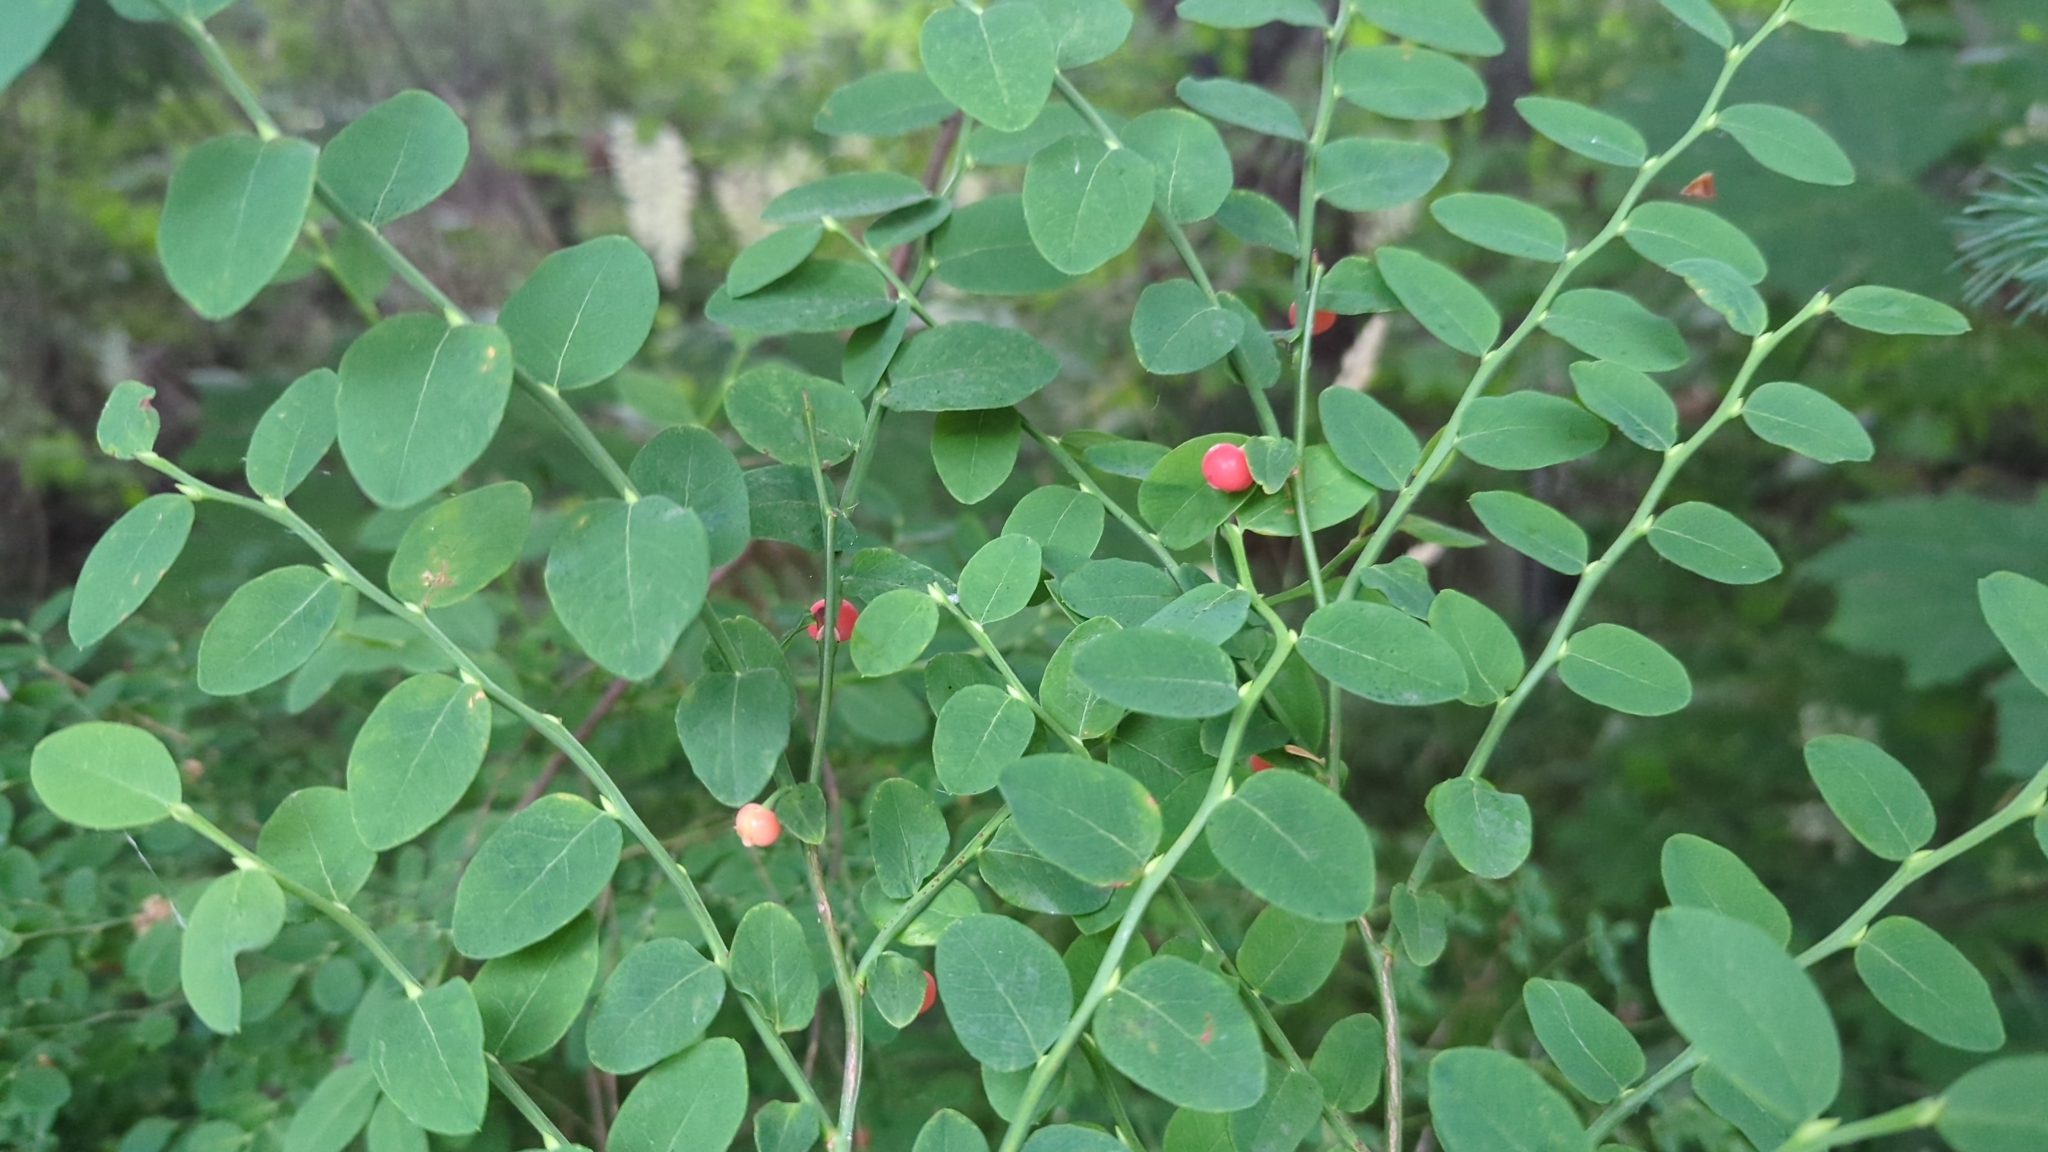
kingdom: Plantae
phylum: Tracheophyta
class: Magnoliopsida
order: Ericales
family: Ericaceae
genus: Vaccinium
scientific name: Vaccinium parvifolium
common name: Red-huckleberry
